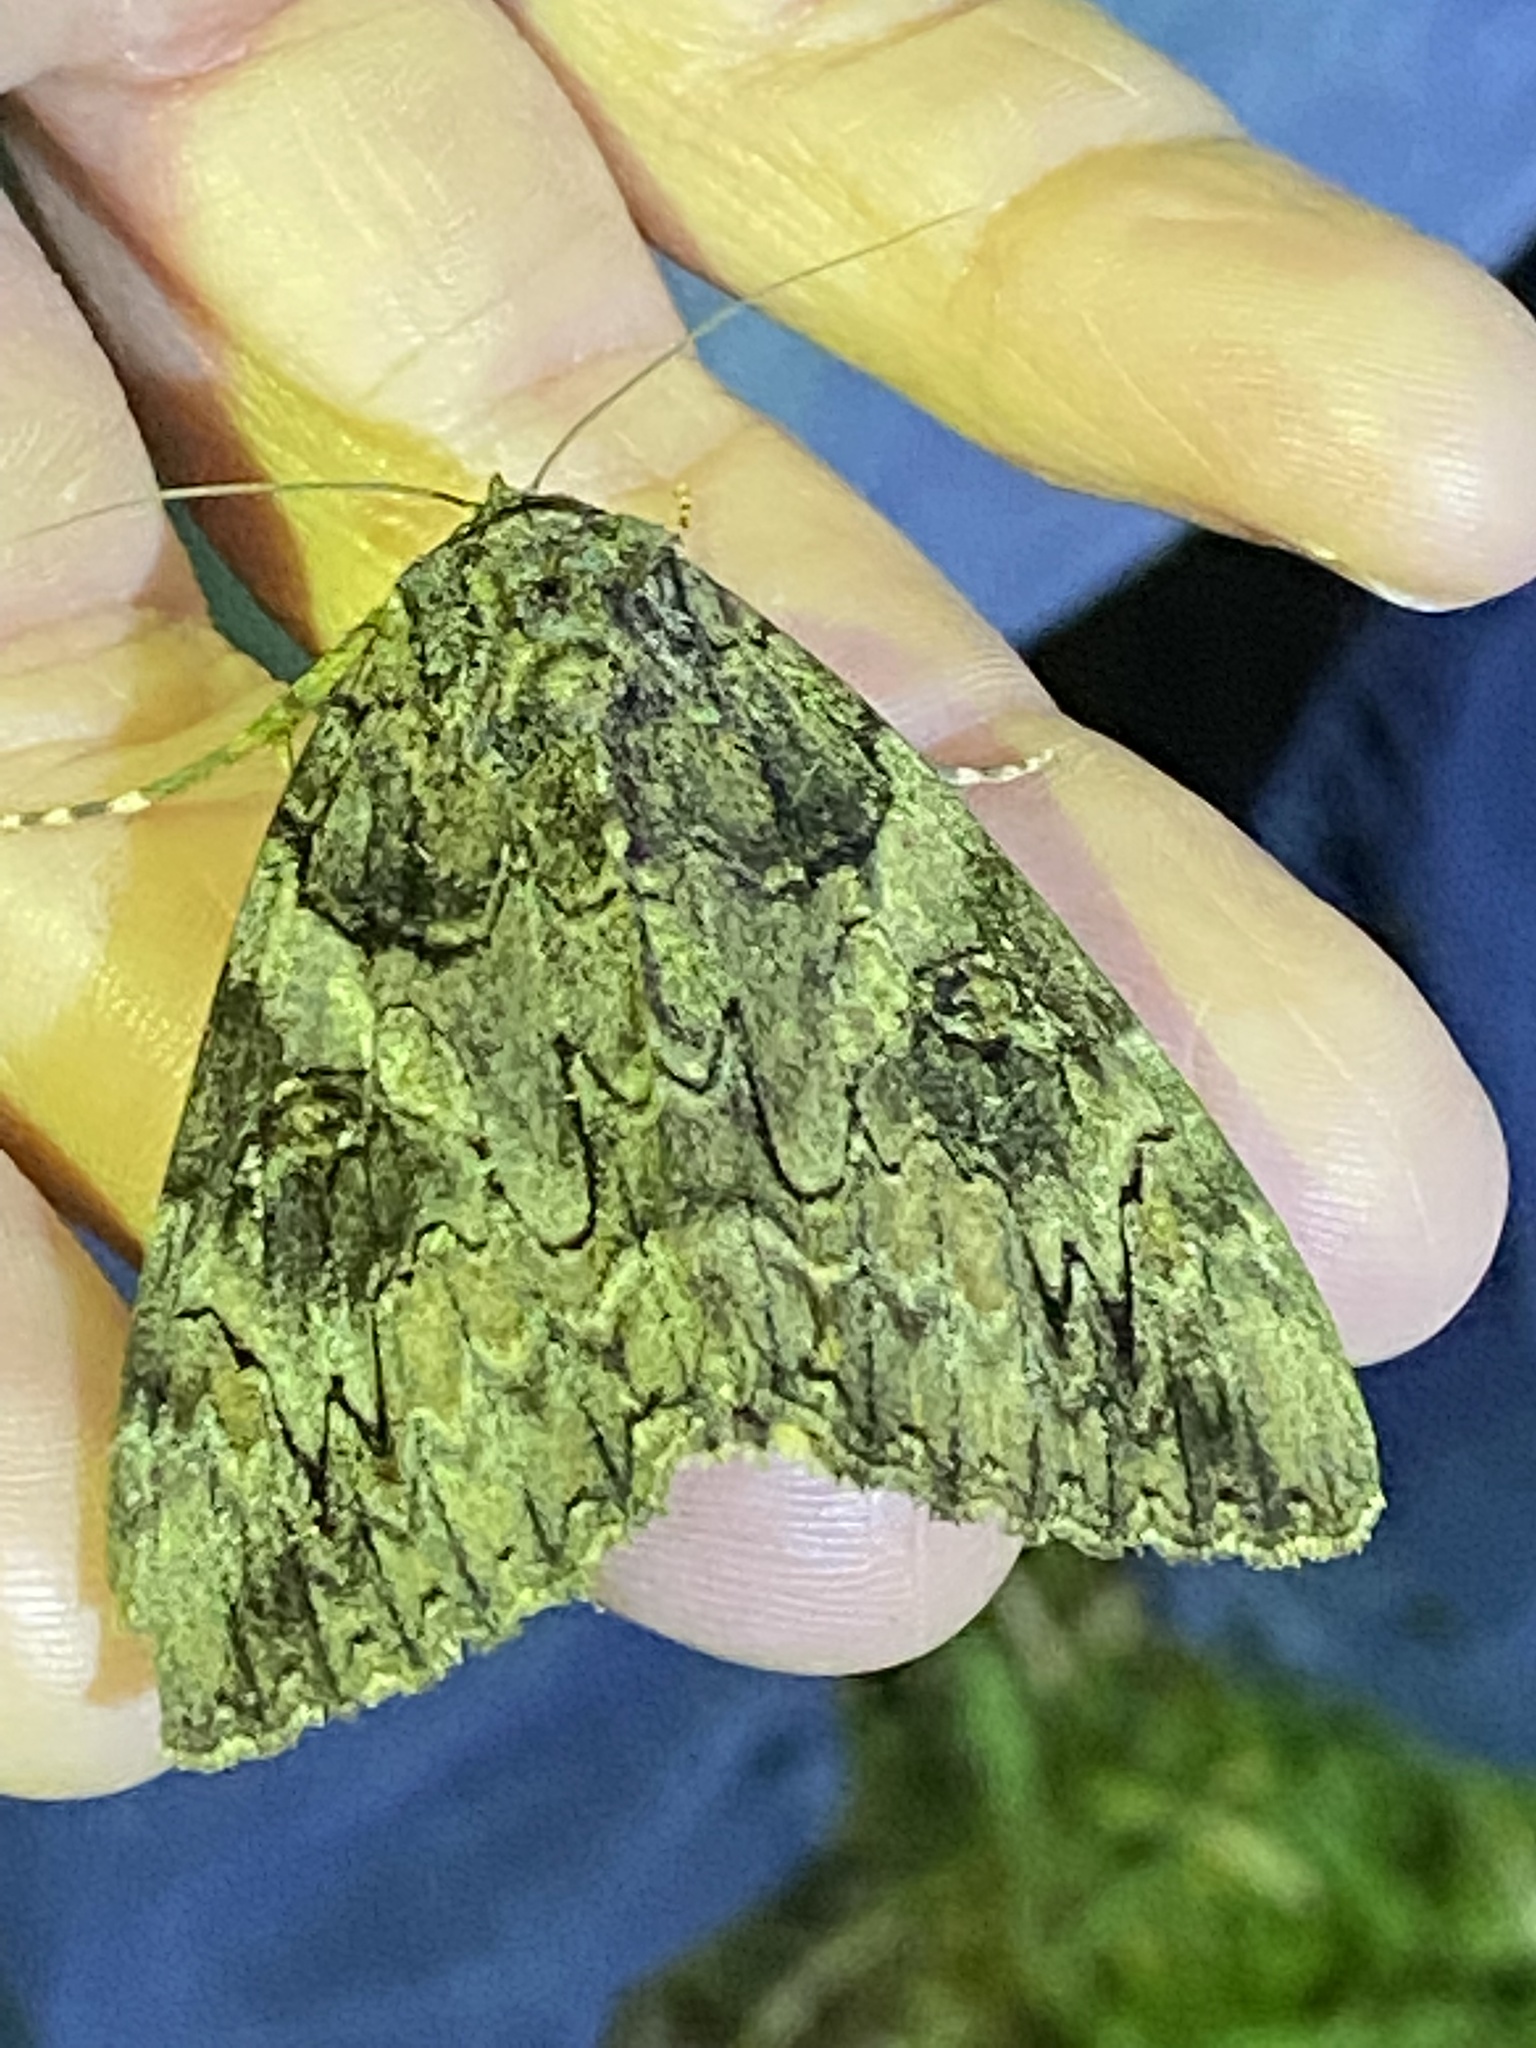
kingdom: Animalia
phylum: Arthropoda
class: Insecta
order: Lepidoptera
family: Erebidae
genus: Catocala
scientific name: Catocala piatrix
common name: The penitent underwing
